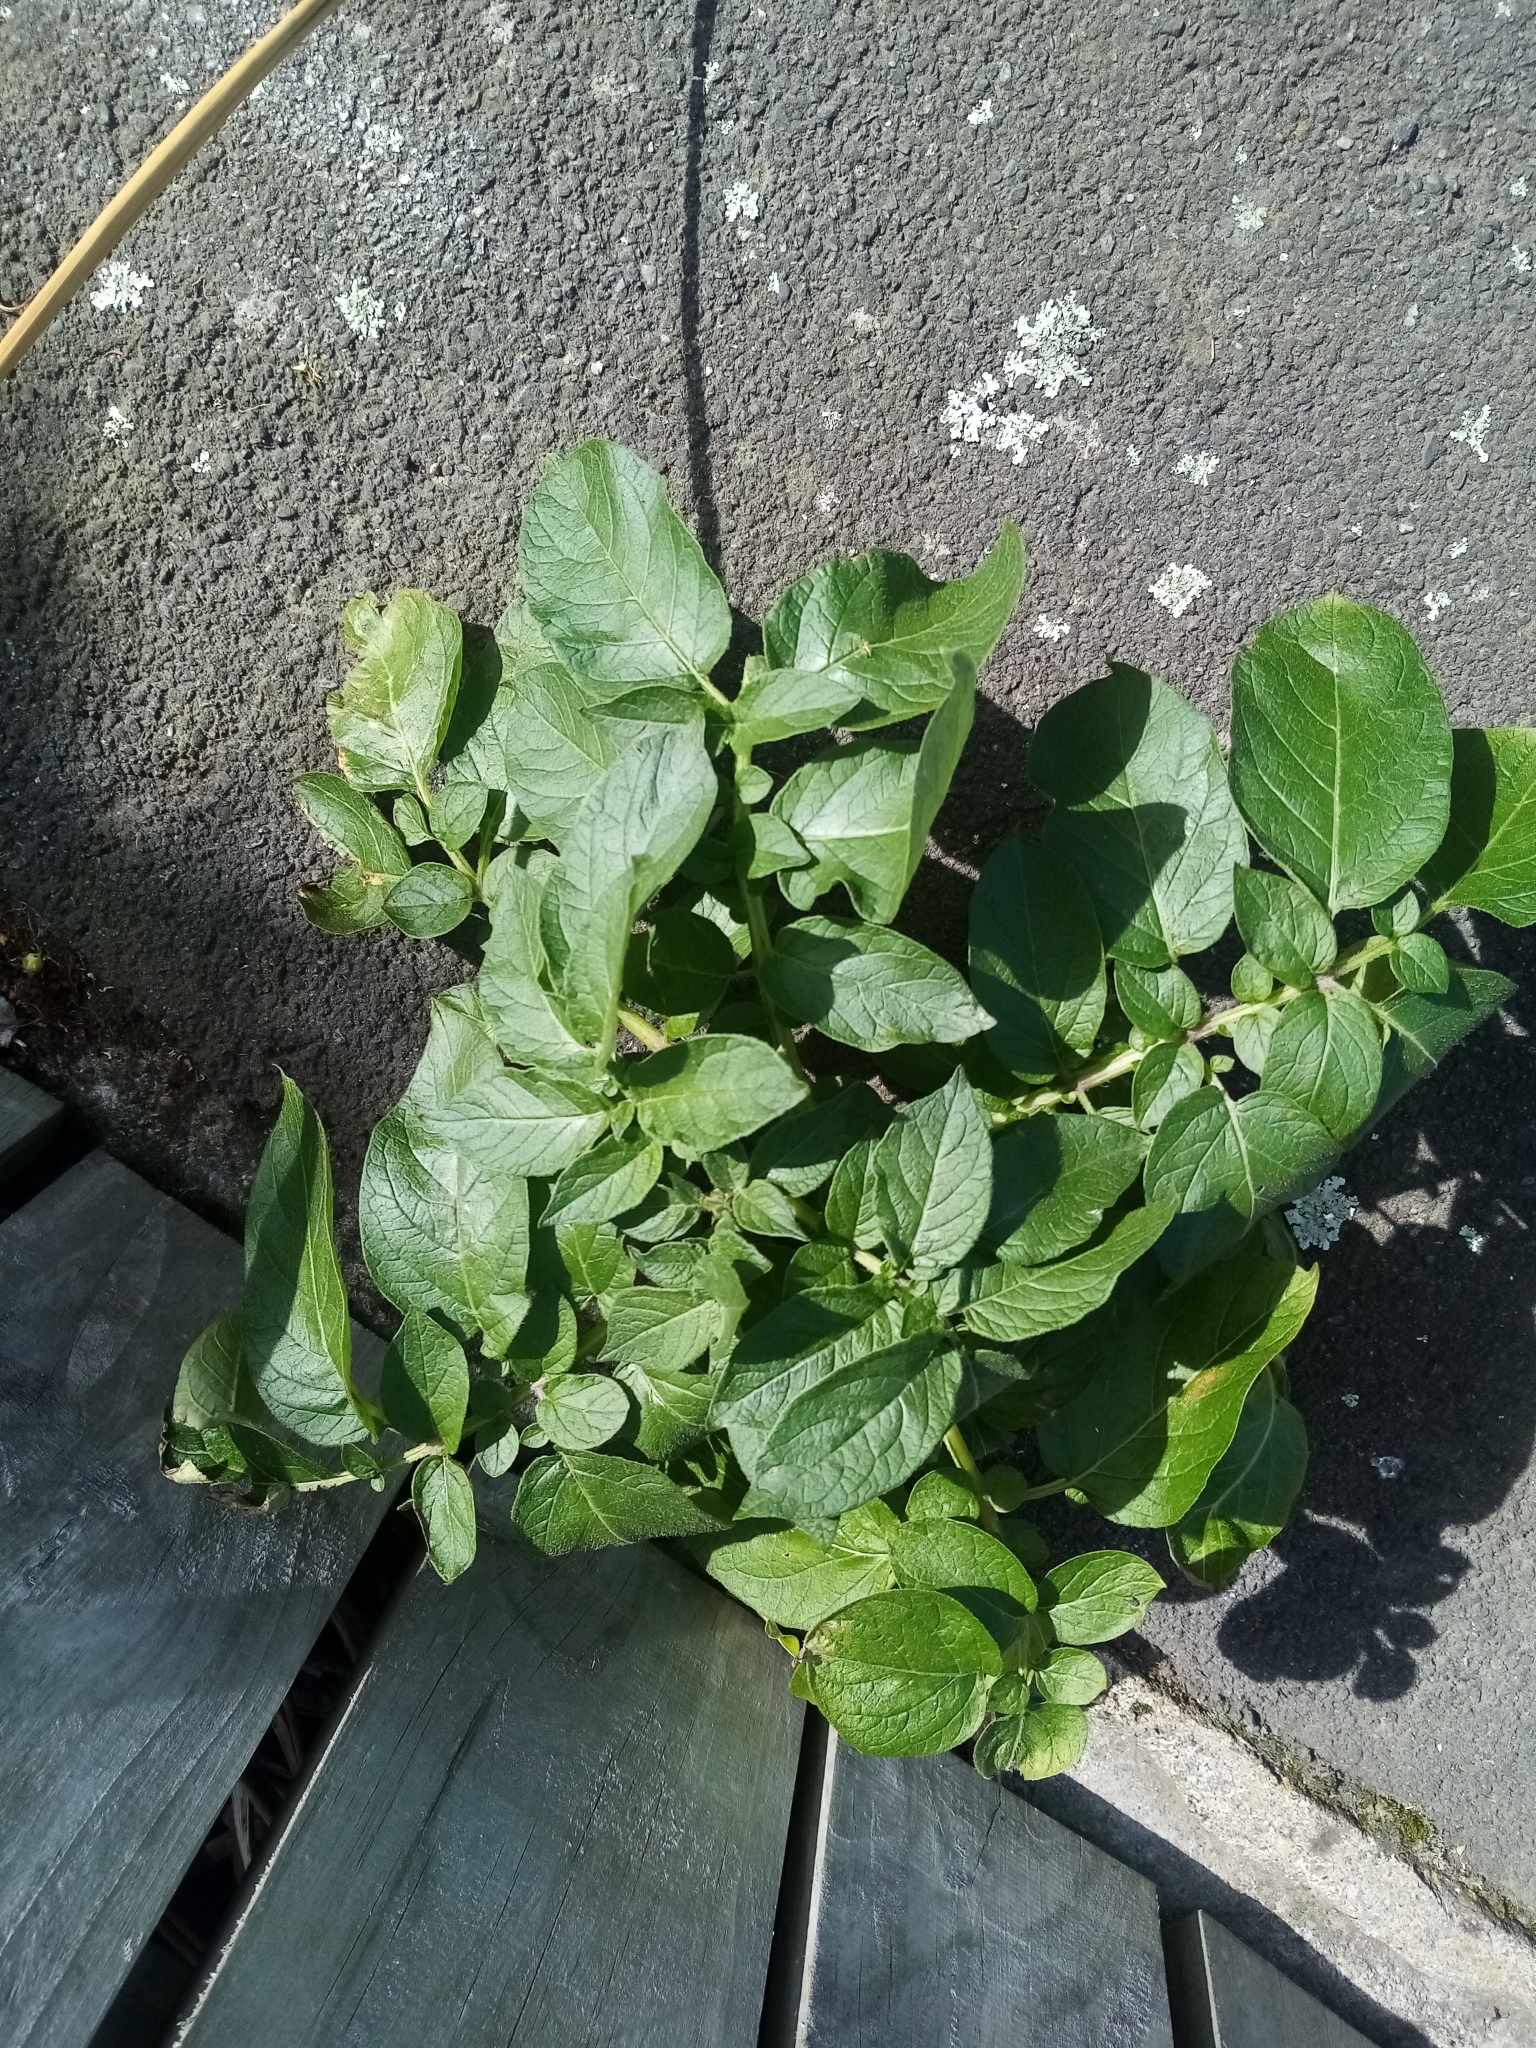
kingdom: Plantae
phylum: Tracheophyta
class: Magnoliopsida
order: Solanales
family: Solanaceae
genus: Solanum
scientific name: Solanum tuberosum
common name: Potato
